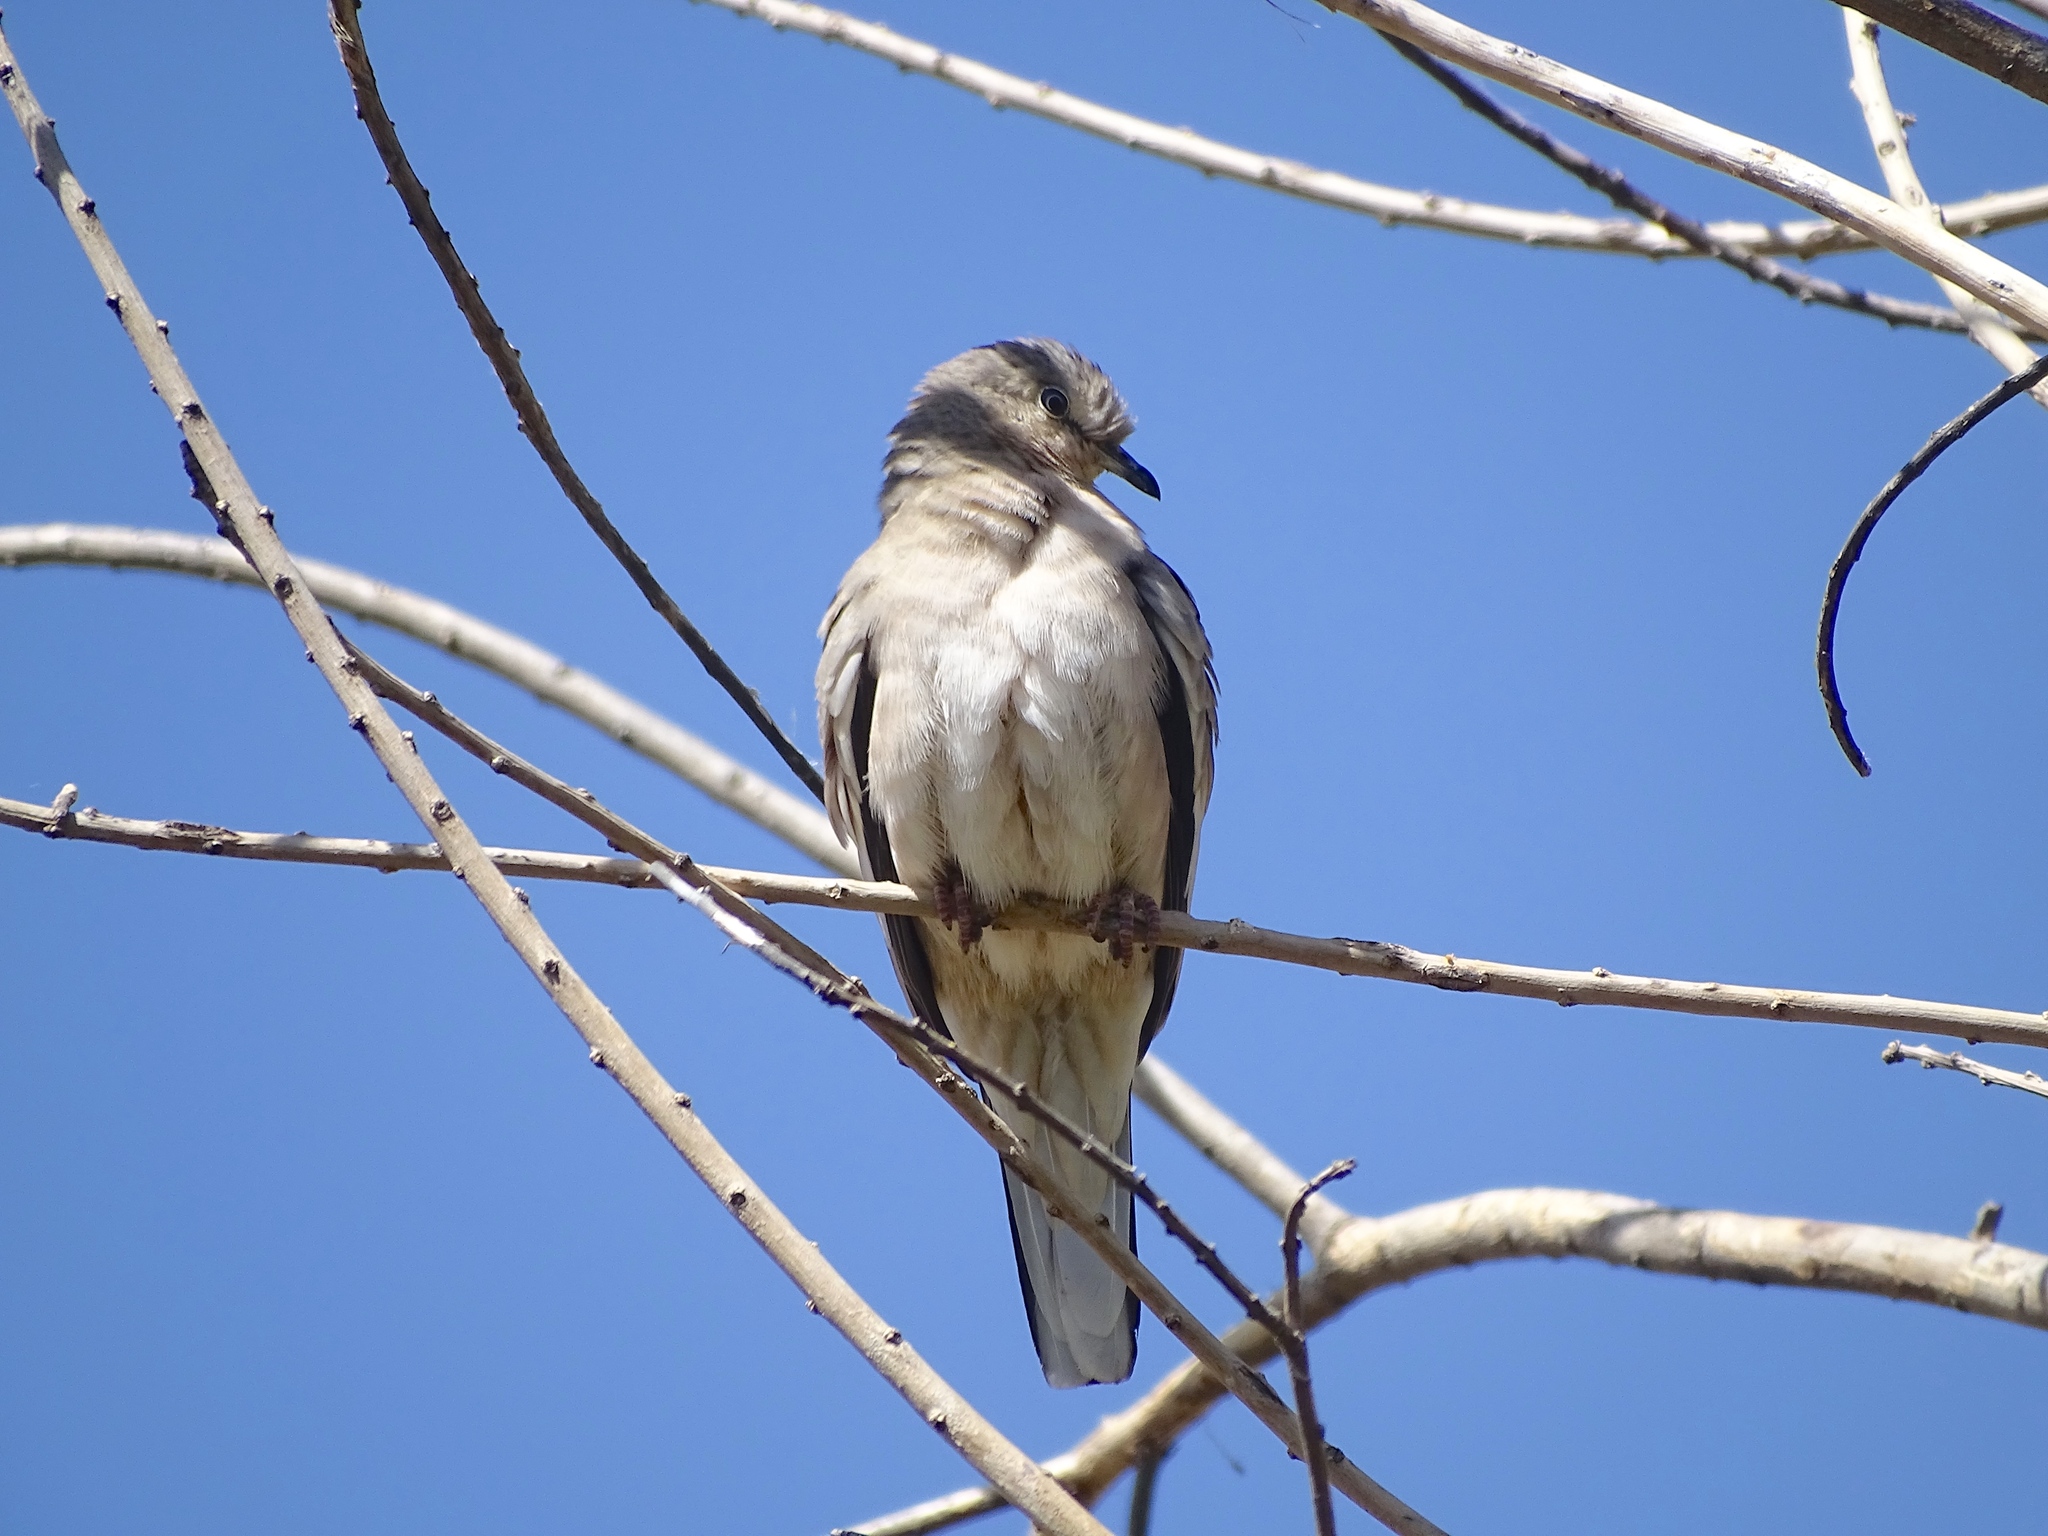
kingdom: Animalia
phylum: Chordata
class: Aves
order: Columbiformes
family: Columbidae
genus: Columbina
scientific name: Columbina picui
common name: Picui ground dove
